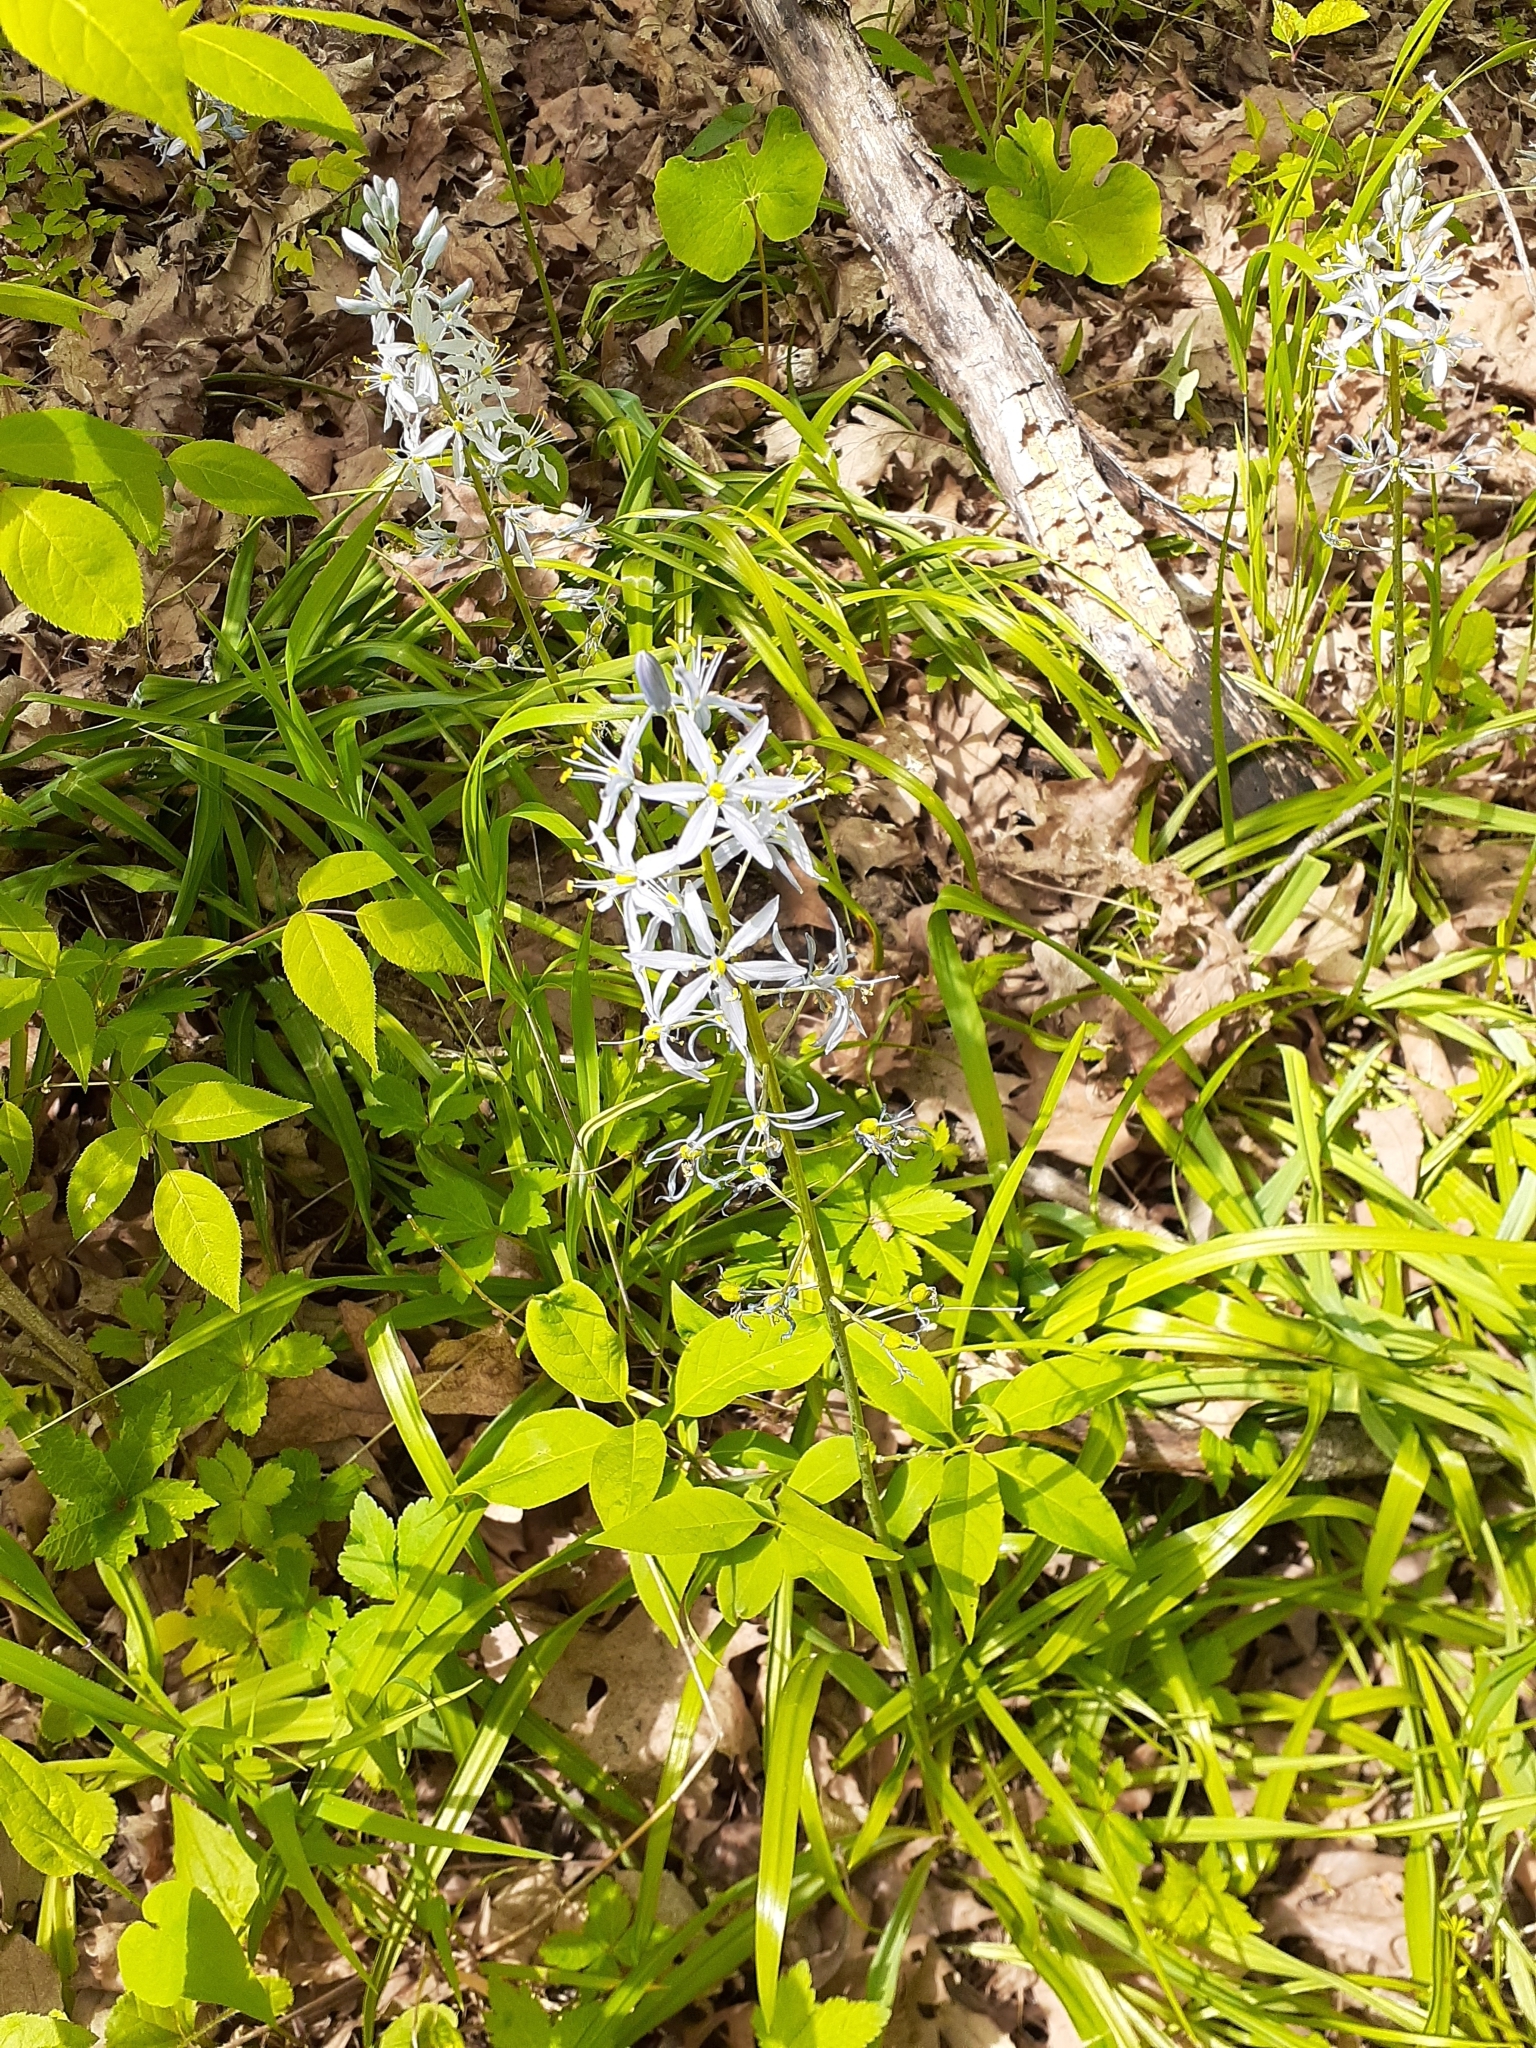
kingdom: Plantae
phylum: Tracheophyta
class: Liliopsida
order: Asparagales
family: Asparagaceae
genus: Camassia
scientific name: Camassia scilloides
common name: Wild hyacinth
